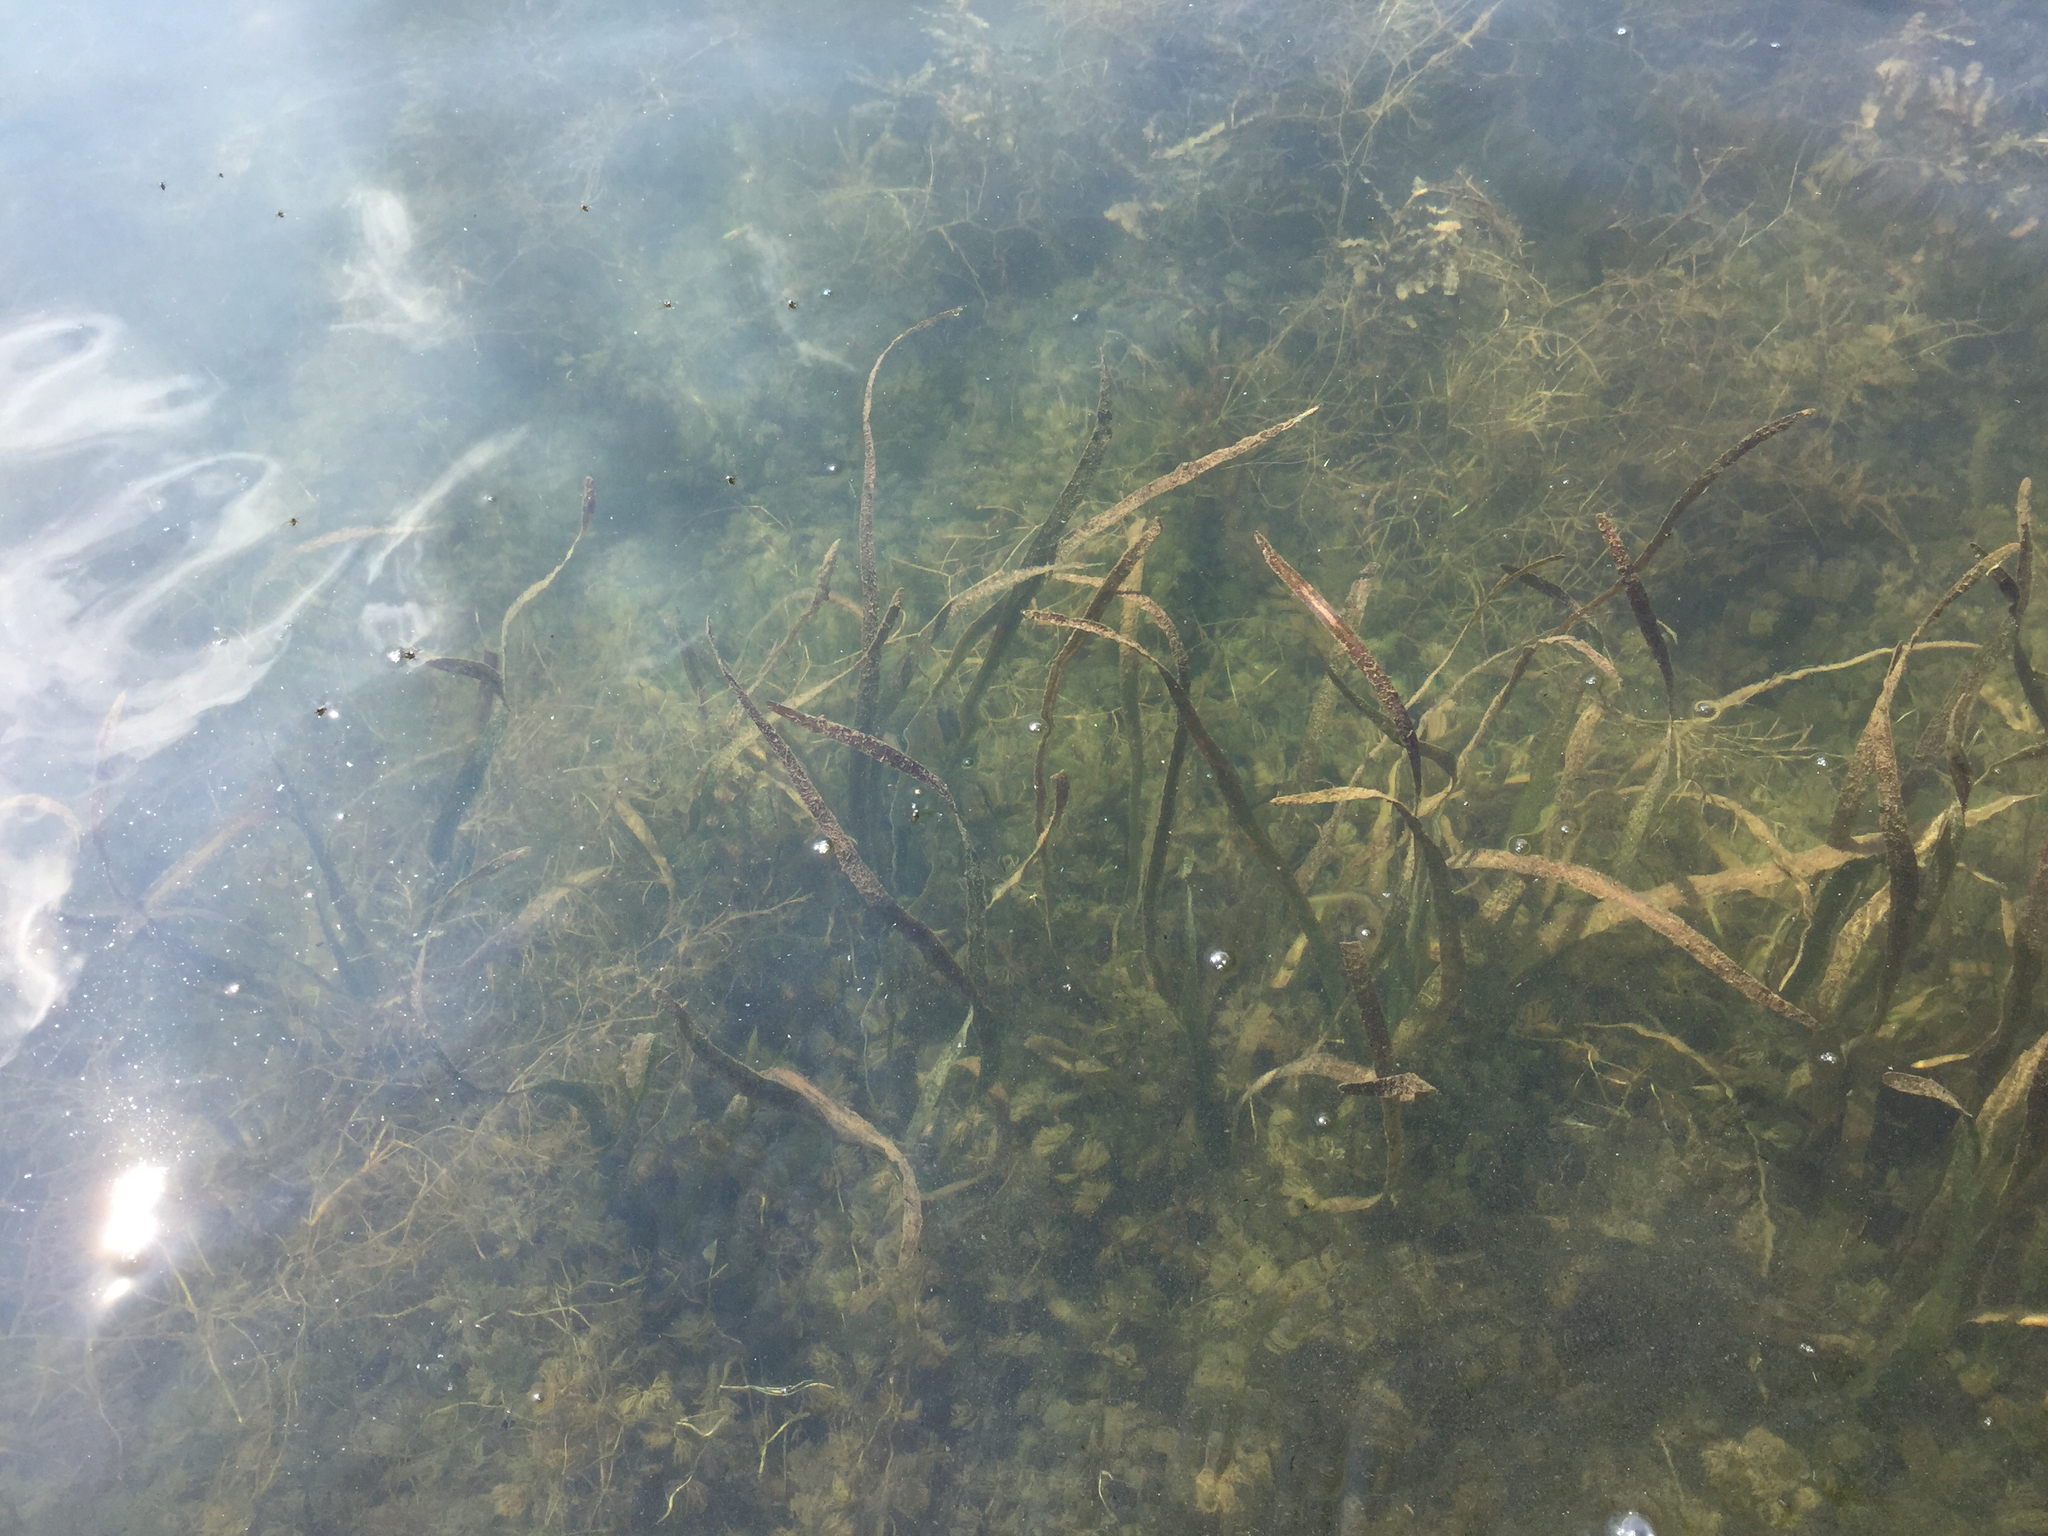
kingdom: Plantae
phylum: Tracheophyta
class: Liliopsida
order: Alismatales
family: Hydrocharitaceae
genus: Vallisneria
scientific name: Vallisneria americana
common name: American eelgrass
